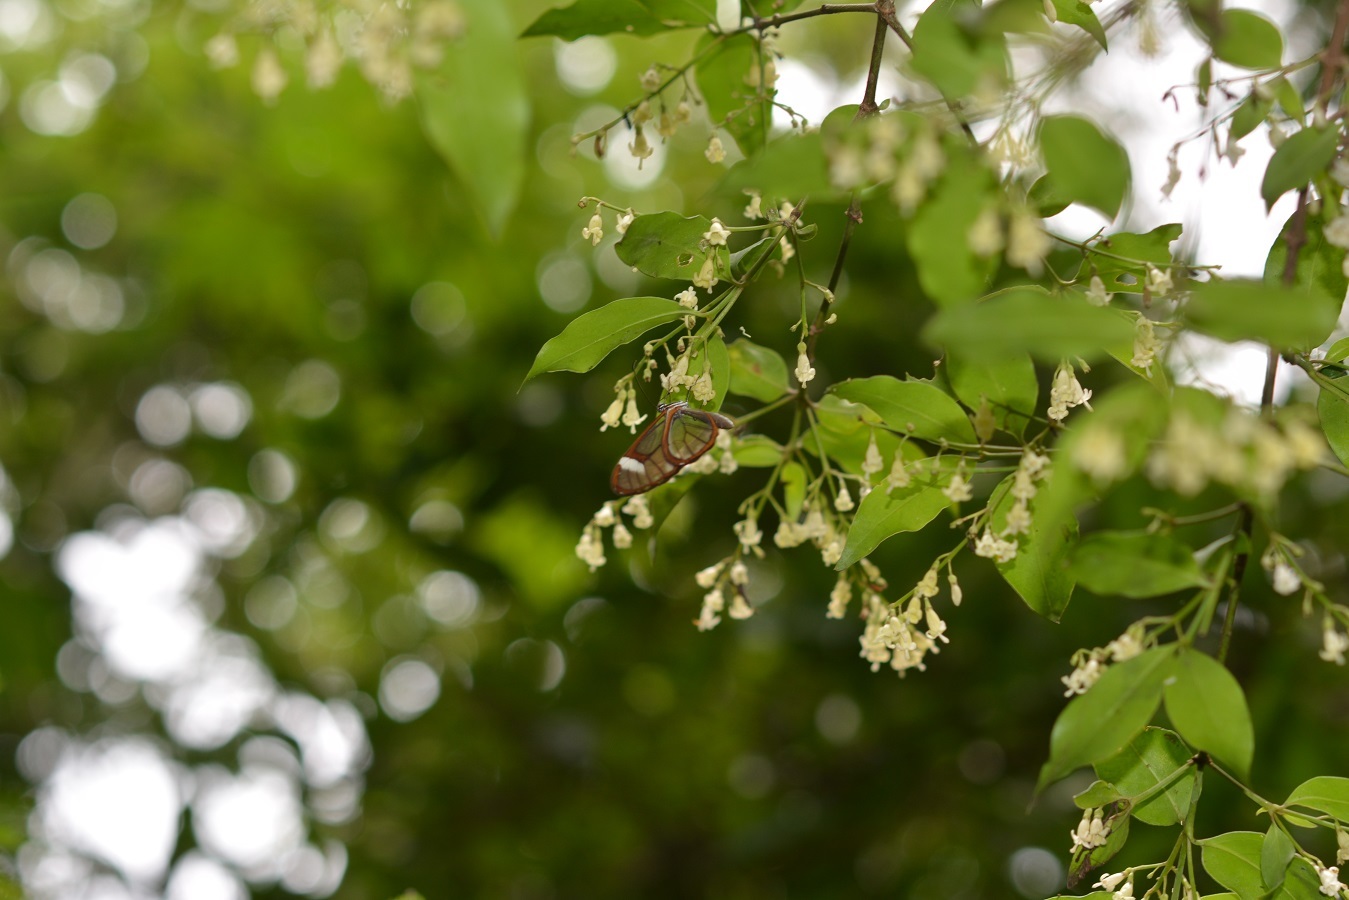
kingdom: Animalia
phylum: Arthropoda
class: Insecta
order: Lepidoptera
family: Nymphalidae
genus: Greta
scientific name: Greta andromica
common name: Andromica clearwing
